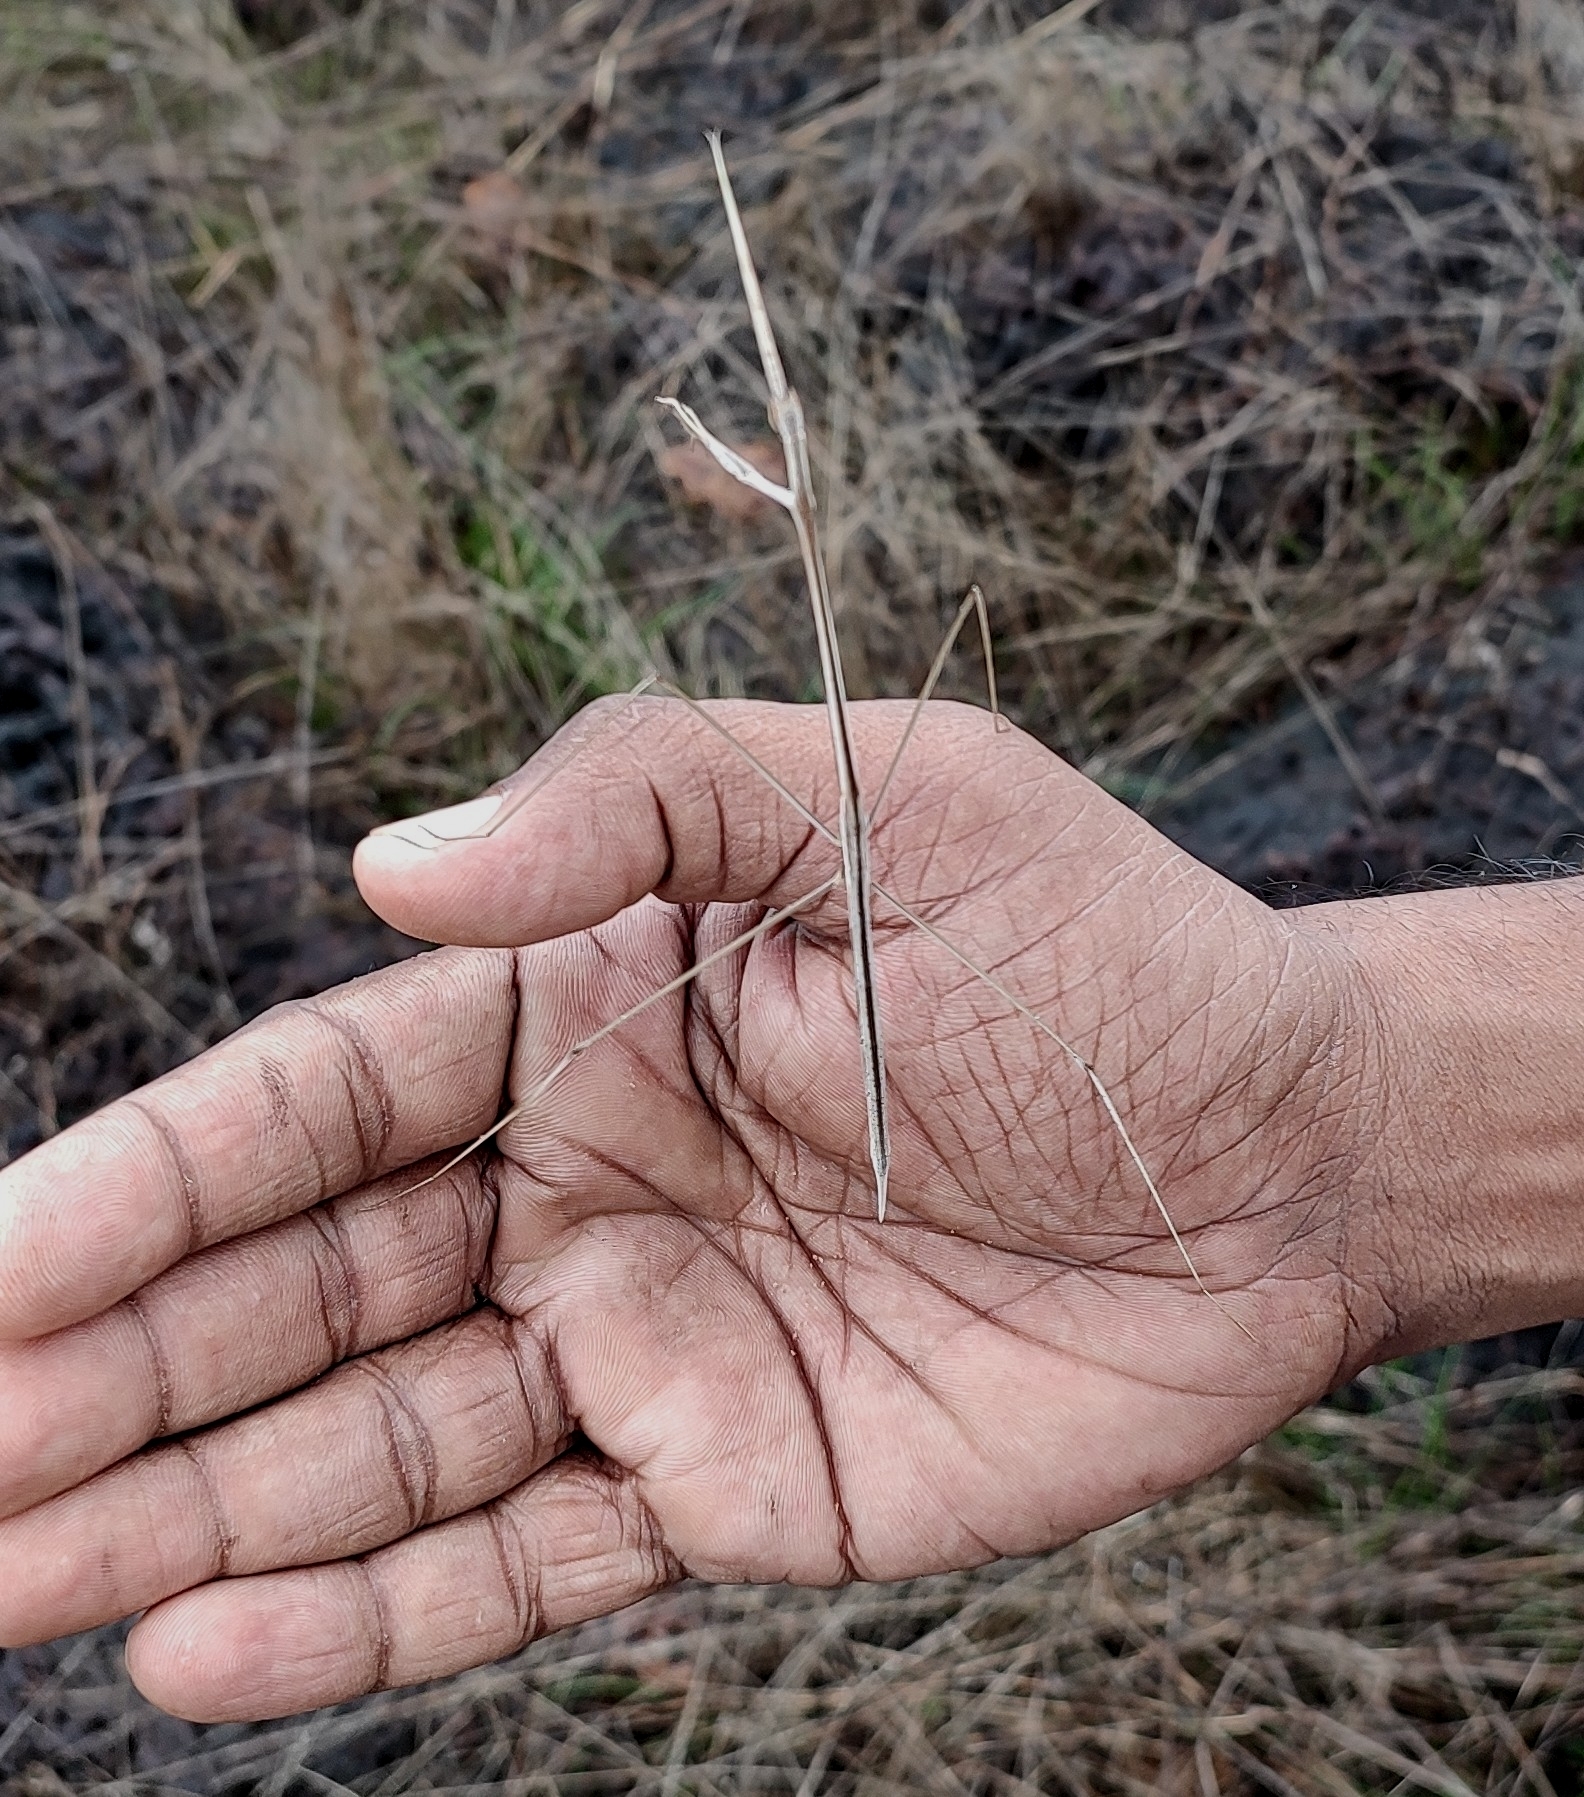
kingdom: Animalia
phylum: Arthropoda
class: Insecta
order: Mantodea
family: Eremiaphilidae
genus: Schizocephala
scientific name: Schizocephala bicornis
